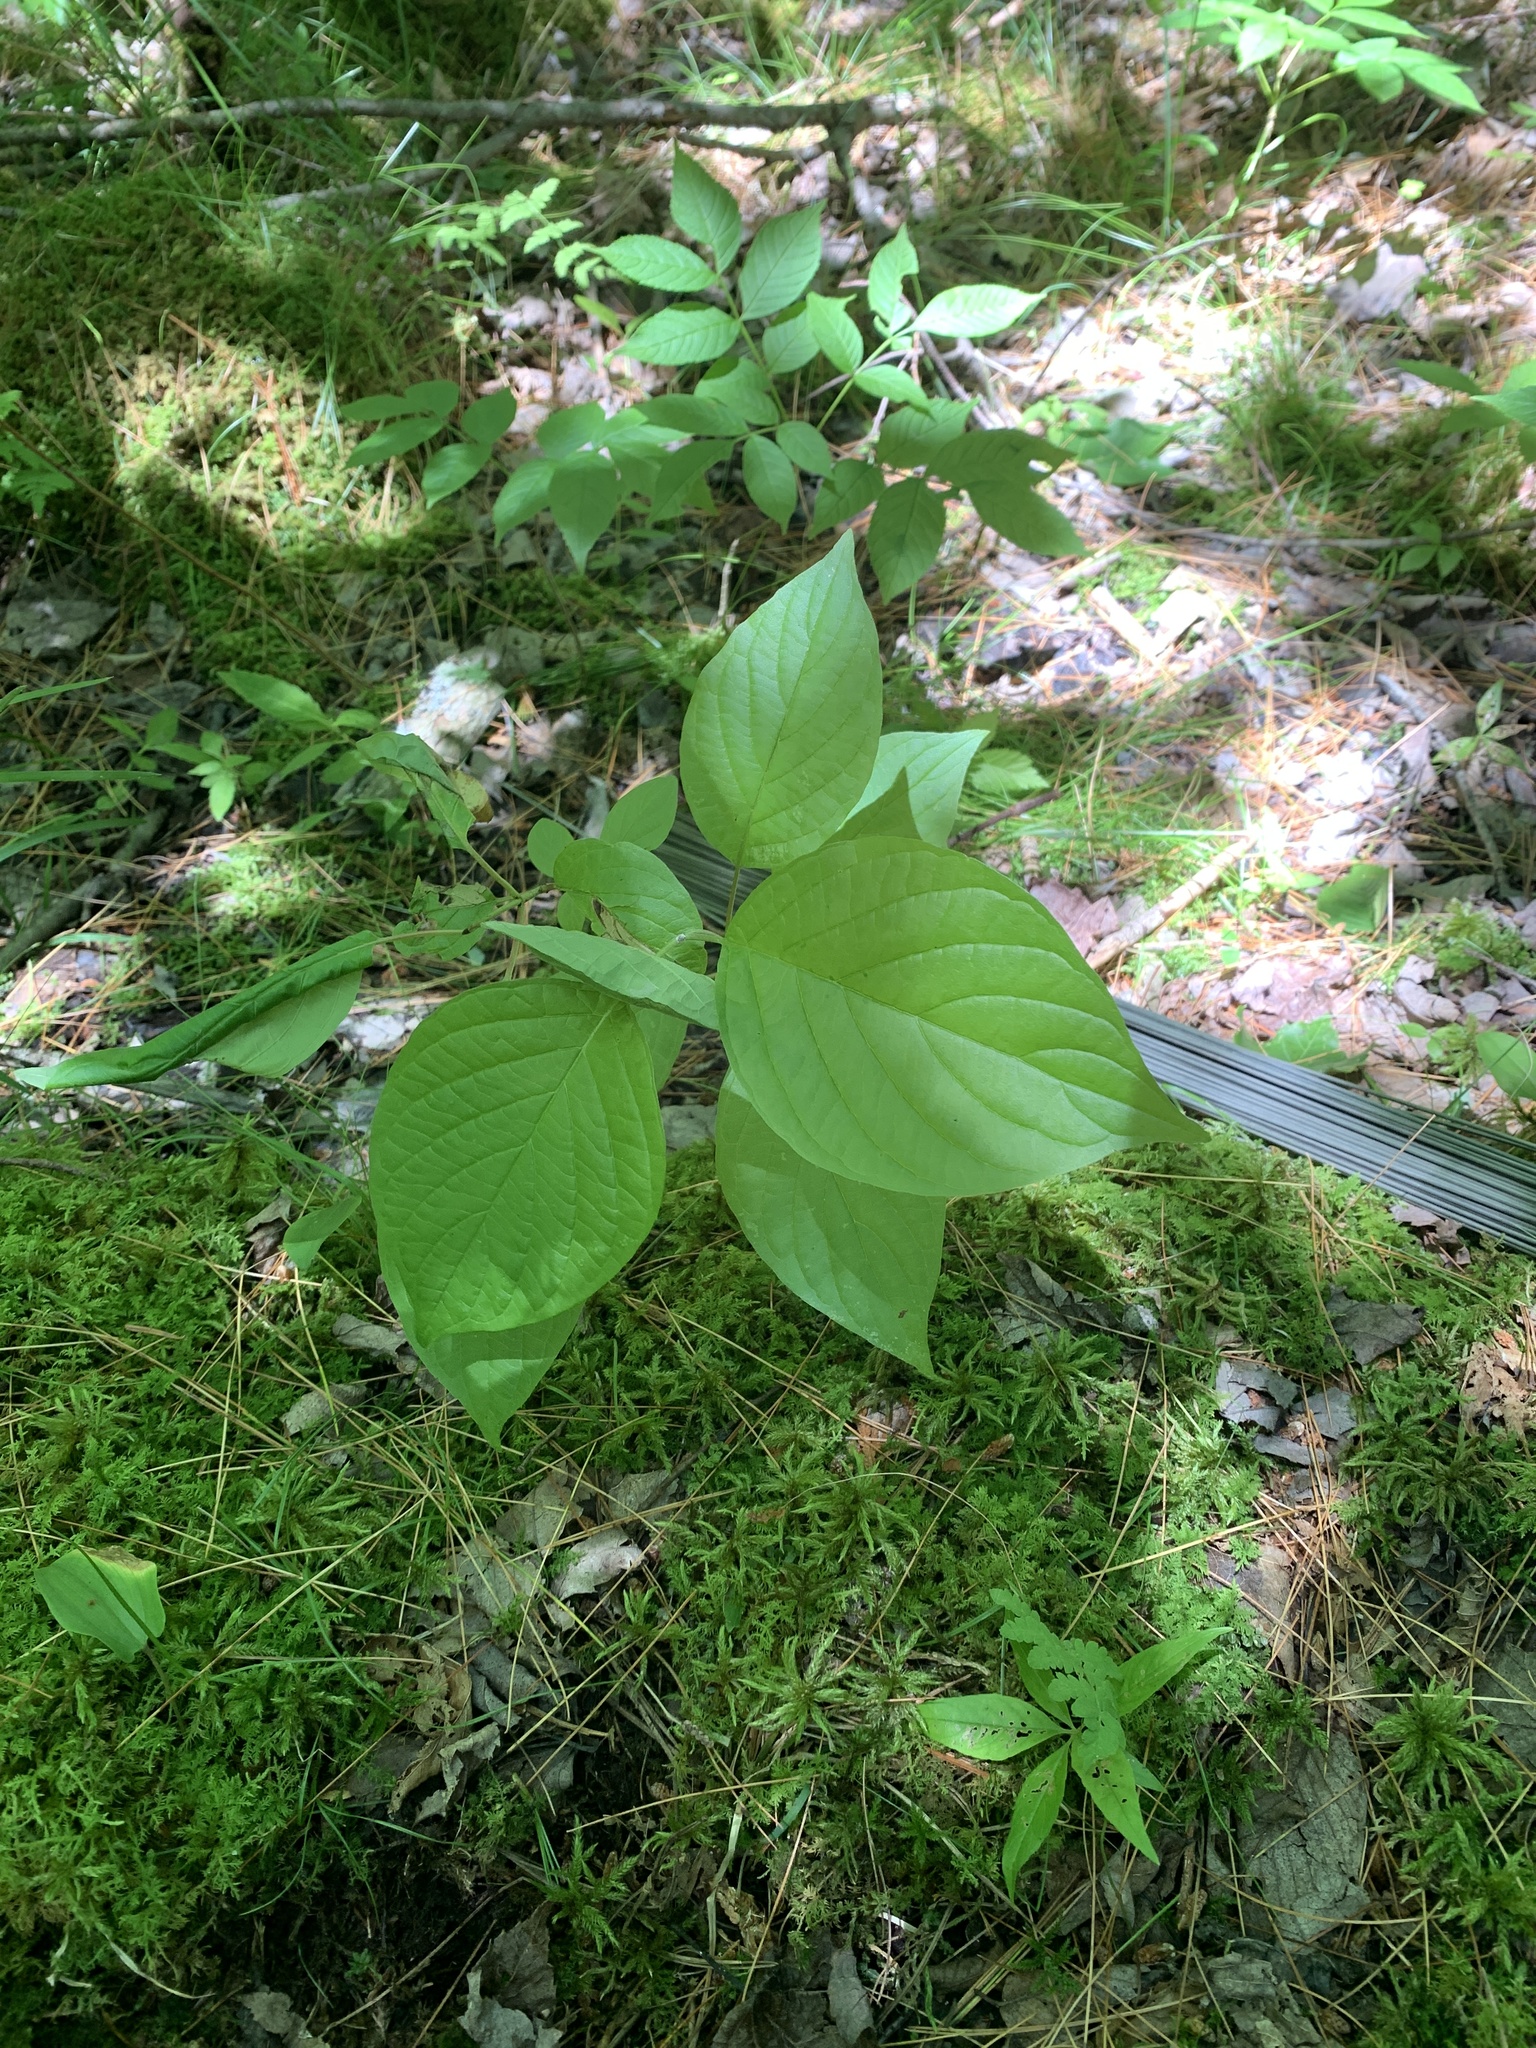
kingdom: Plantae
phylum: Tracheophyta
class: Magnoliopsida
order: Cornales
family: Cornaceae
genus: Cornus
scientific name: Cornus rugosa
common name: Round-leaf dogwood
